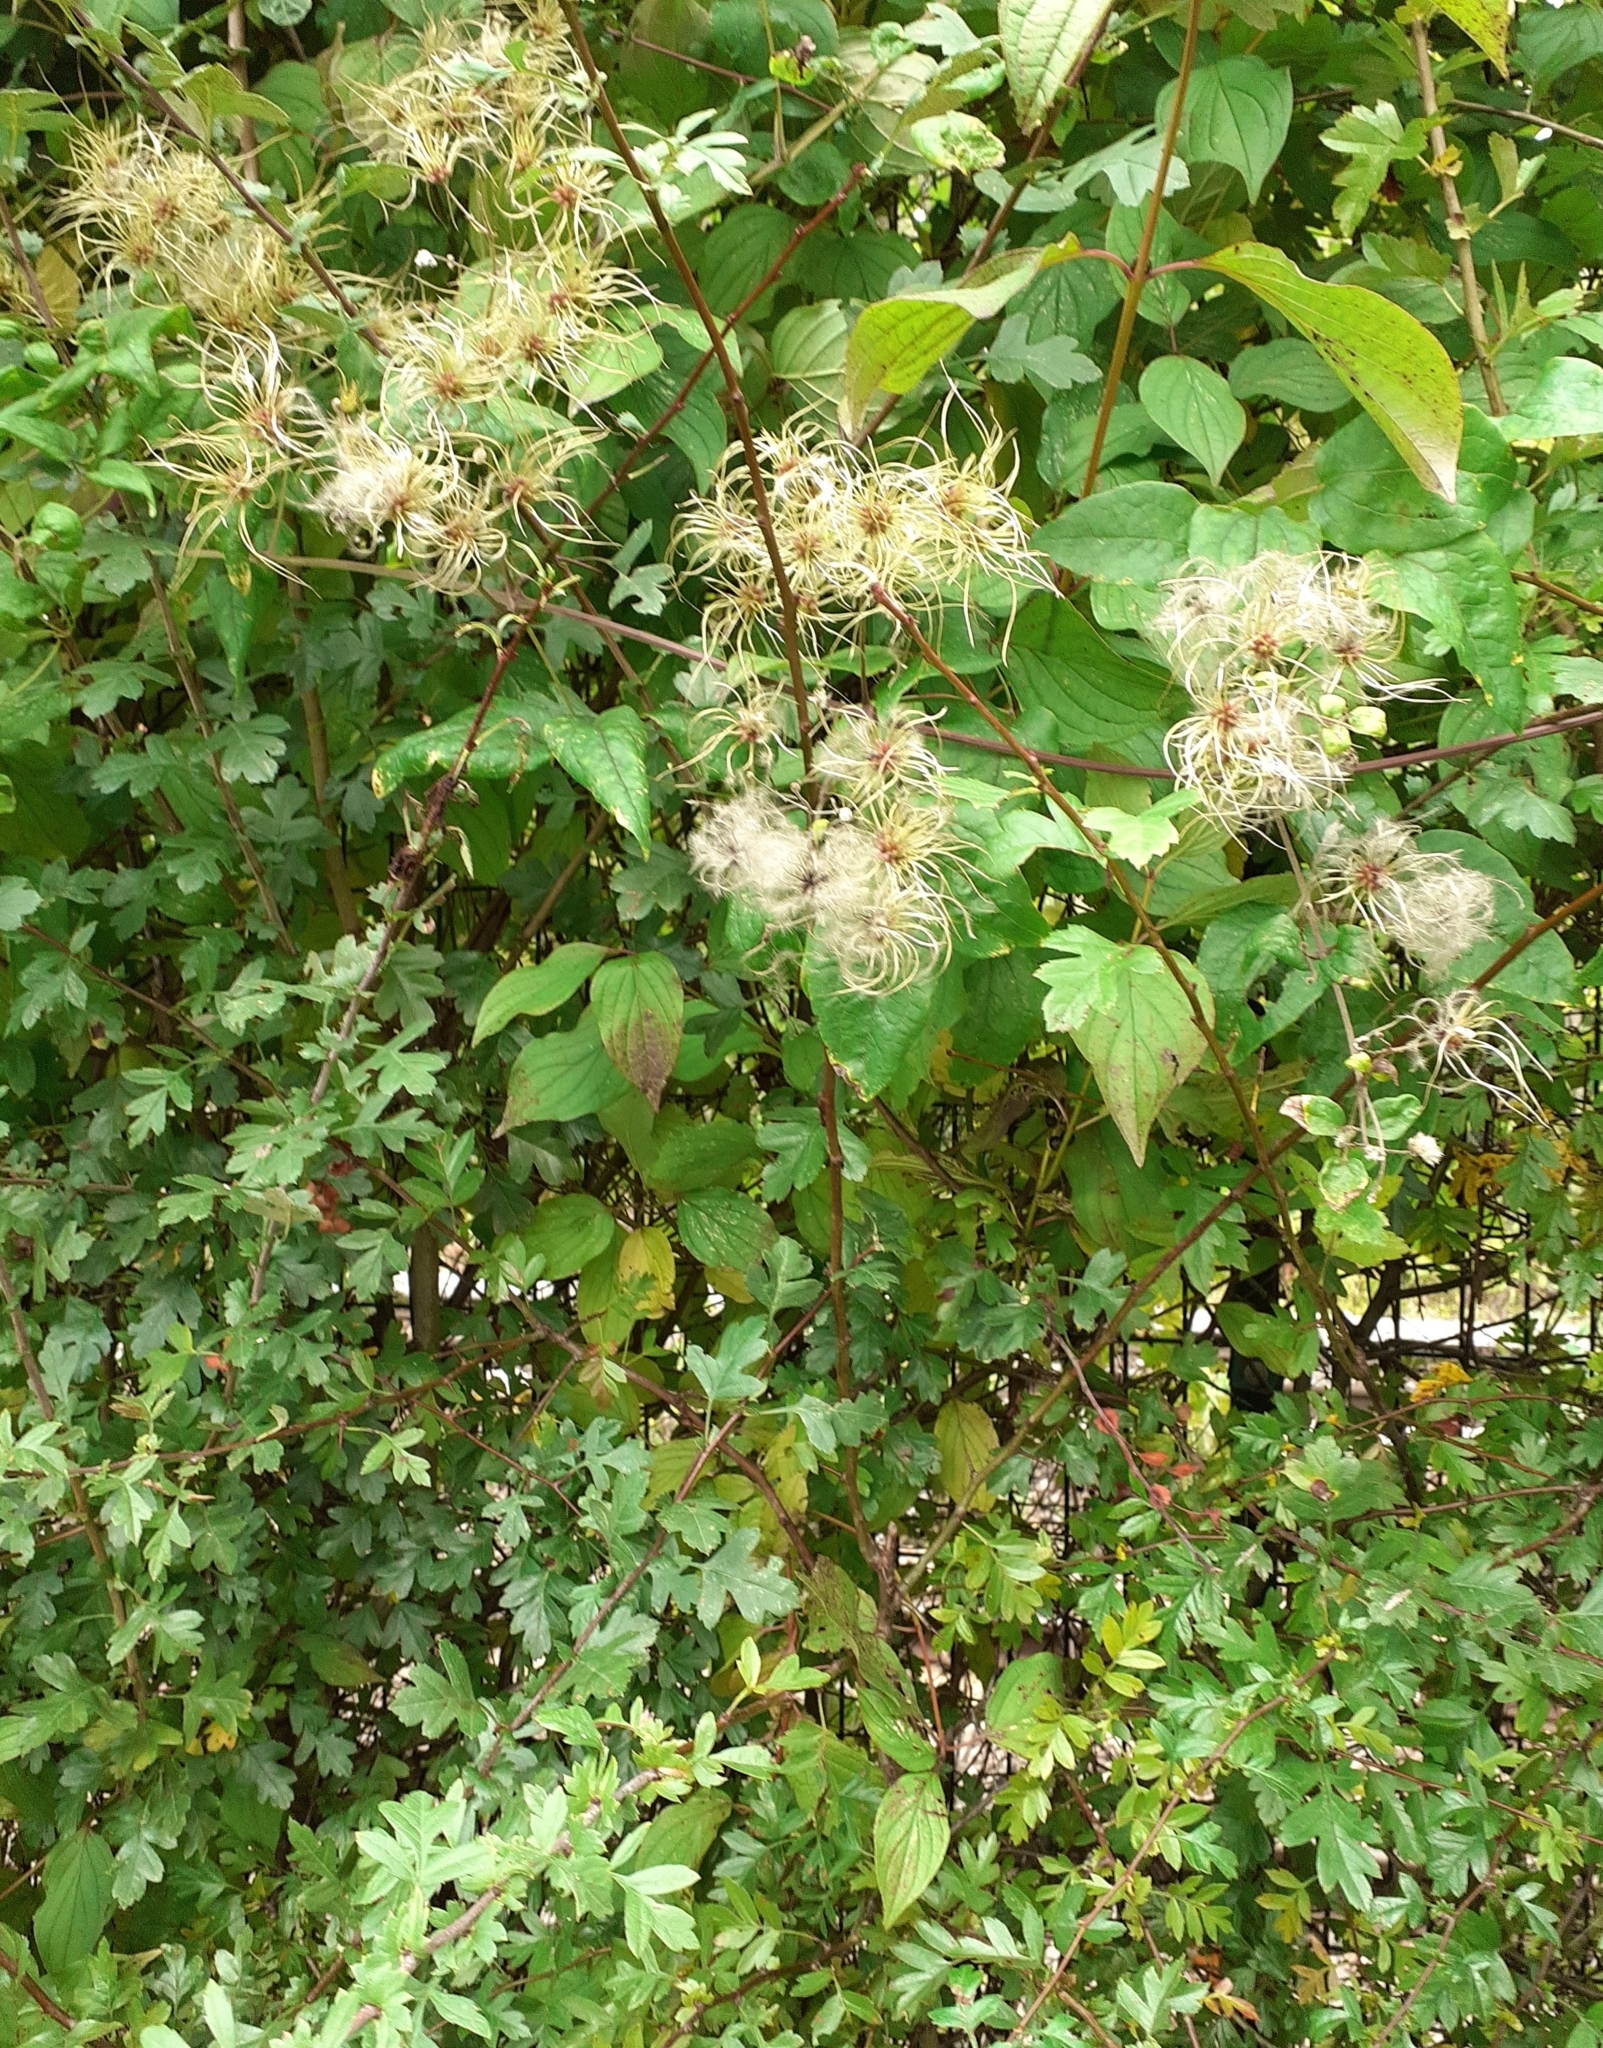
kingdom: Plantae
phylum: Tracheophyta
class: Magnoliopsida
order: Ranunculales
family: Ranunculaceae
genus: Clematis
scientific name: Clematis vitalba
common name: Evergreen clematis
